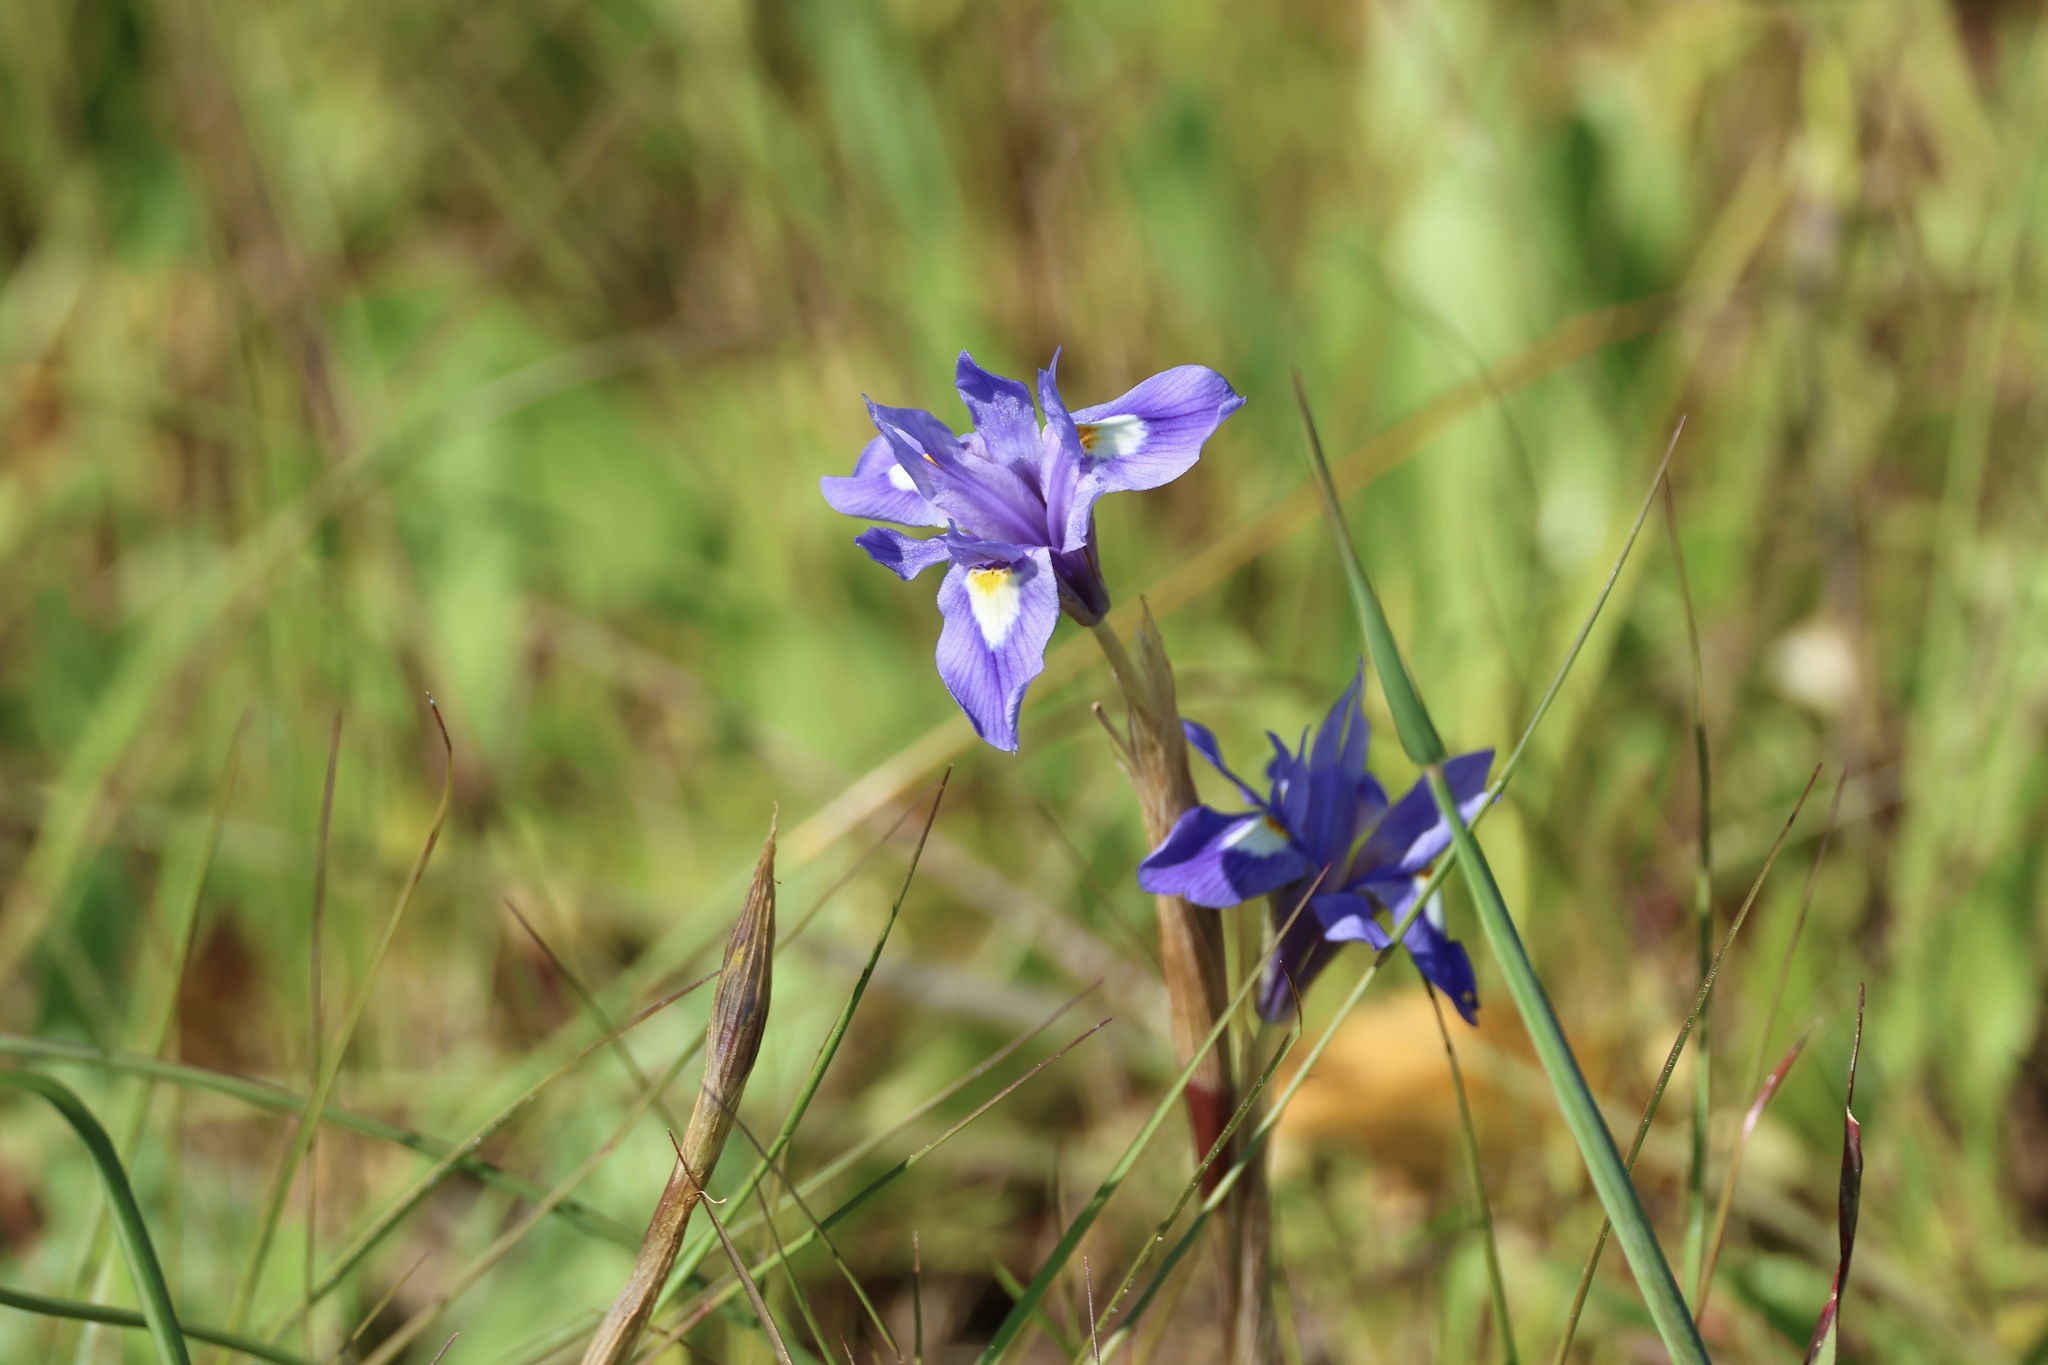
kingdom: Plantae
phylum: Tracheophyta
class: Liliopsida
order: Asparagales
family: Iridaceae
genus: Moraea
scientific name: Moraea sisyrinchium
